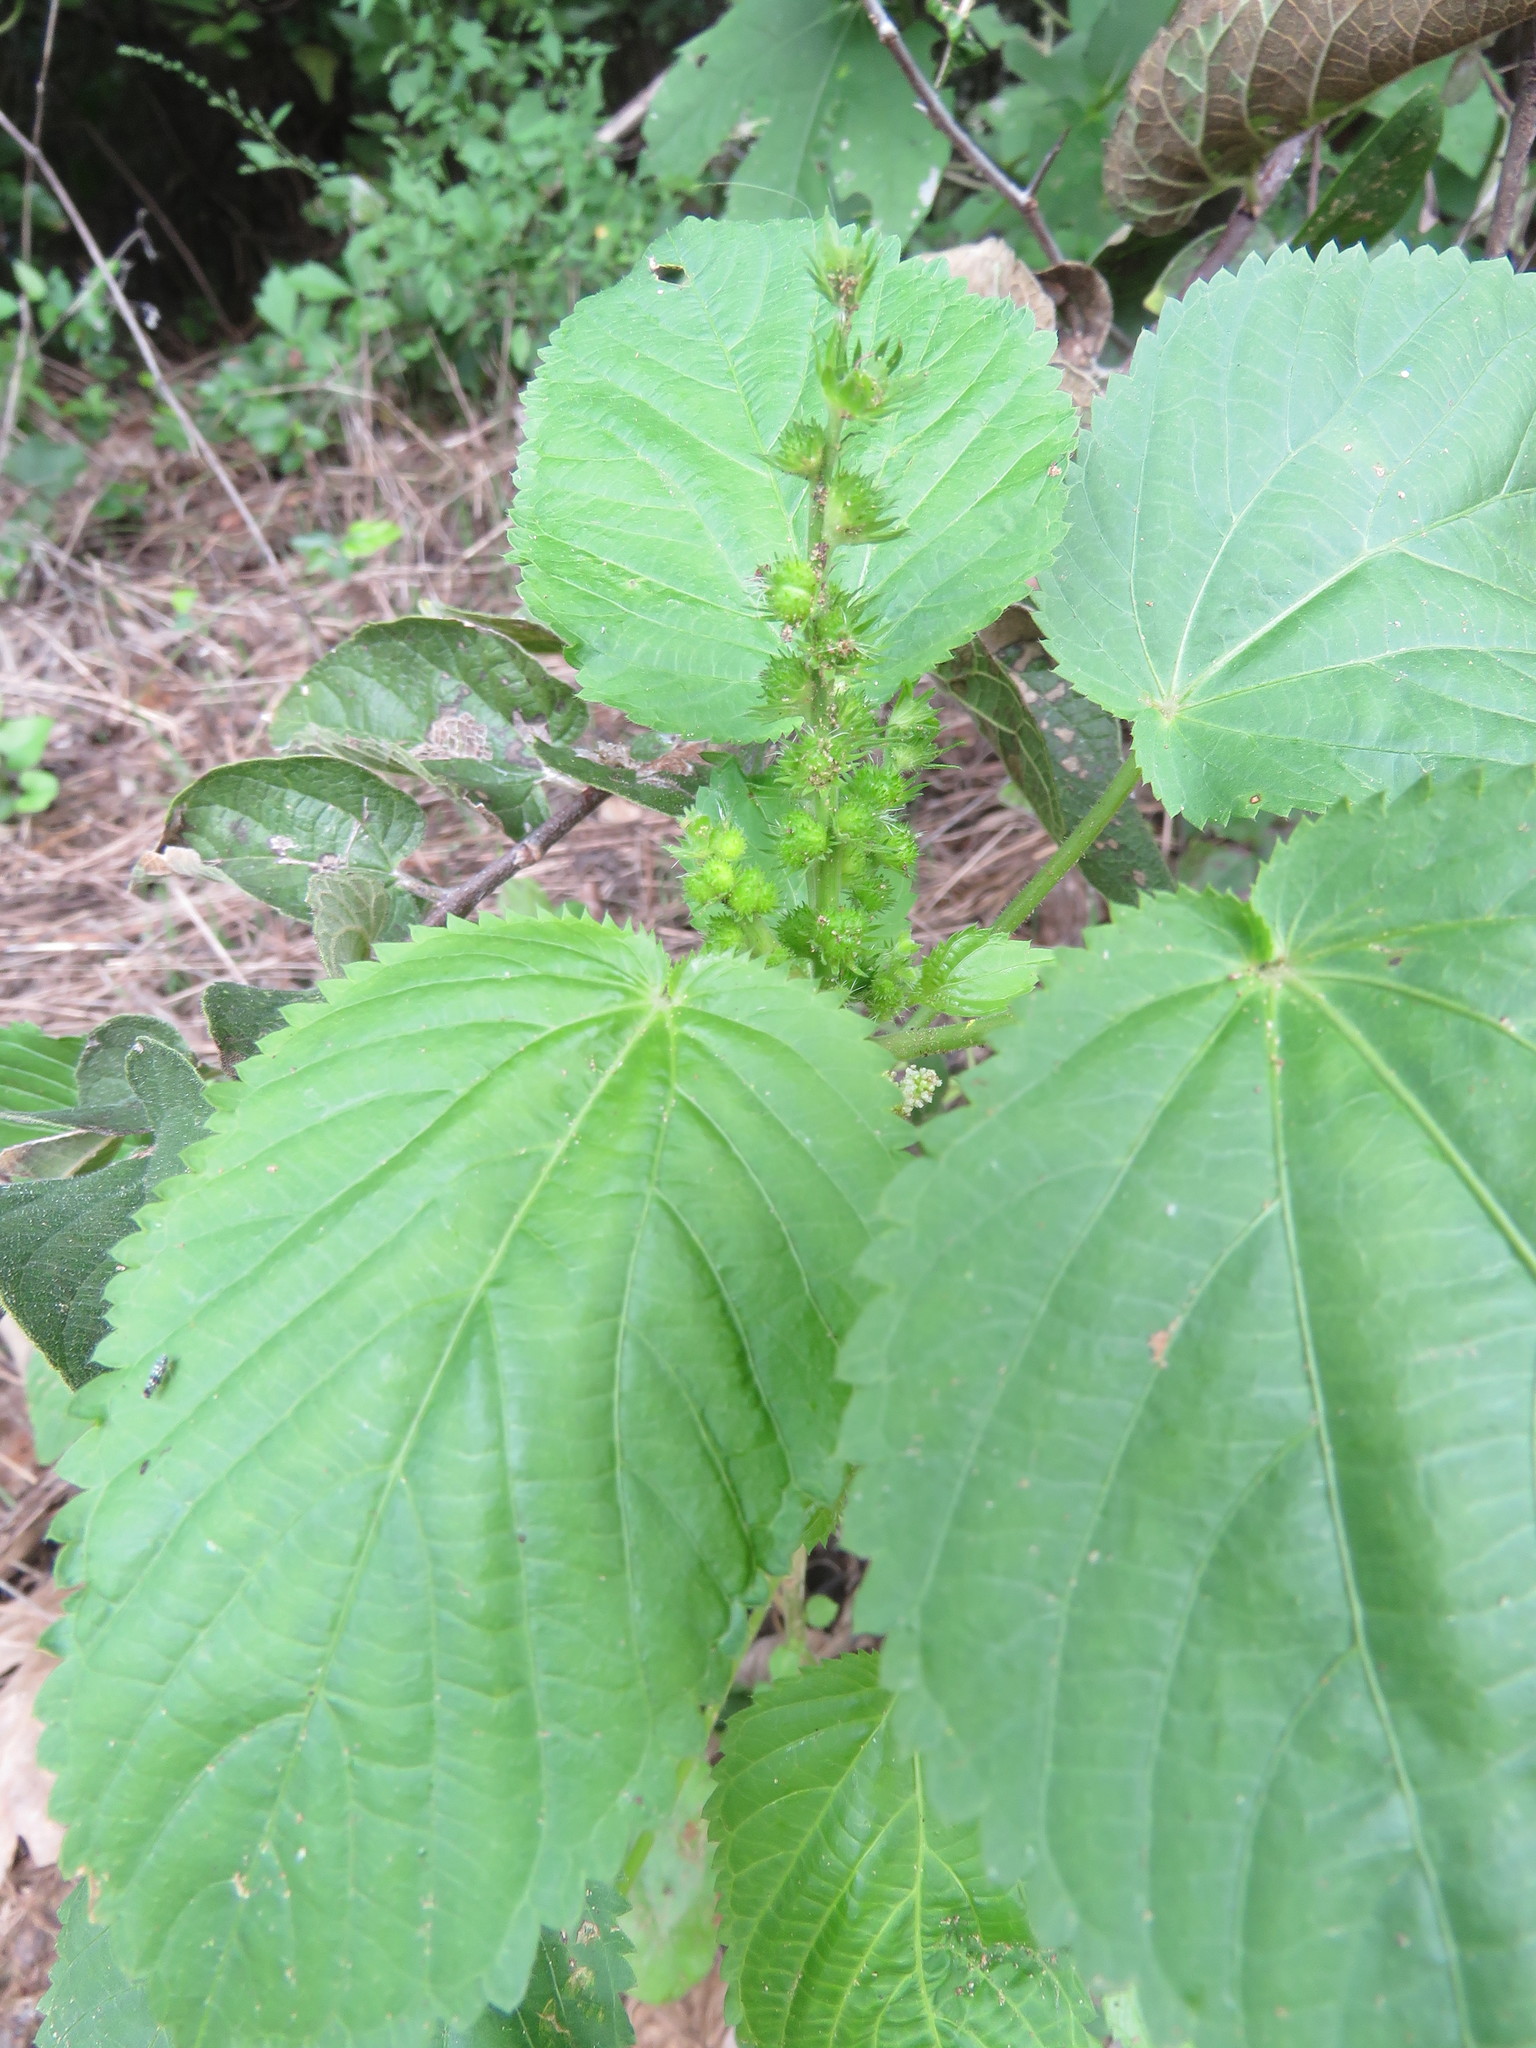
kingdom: Plantae
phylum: Tracheophyta
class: Magnoliopsida
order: Malpighiales
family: Euphorbiaceae
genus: Acalypha
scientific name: Acalypha ostryifolia
